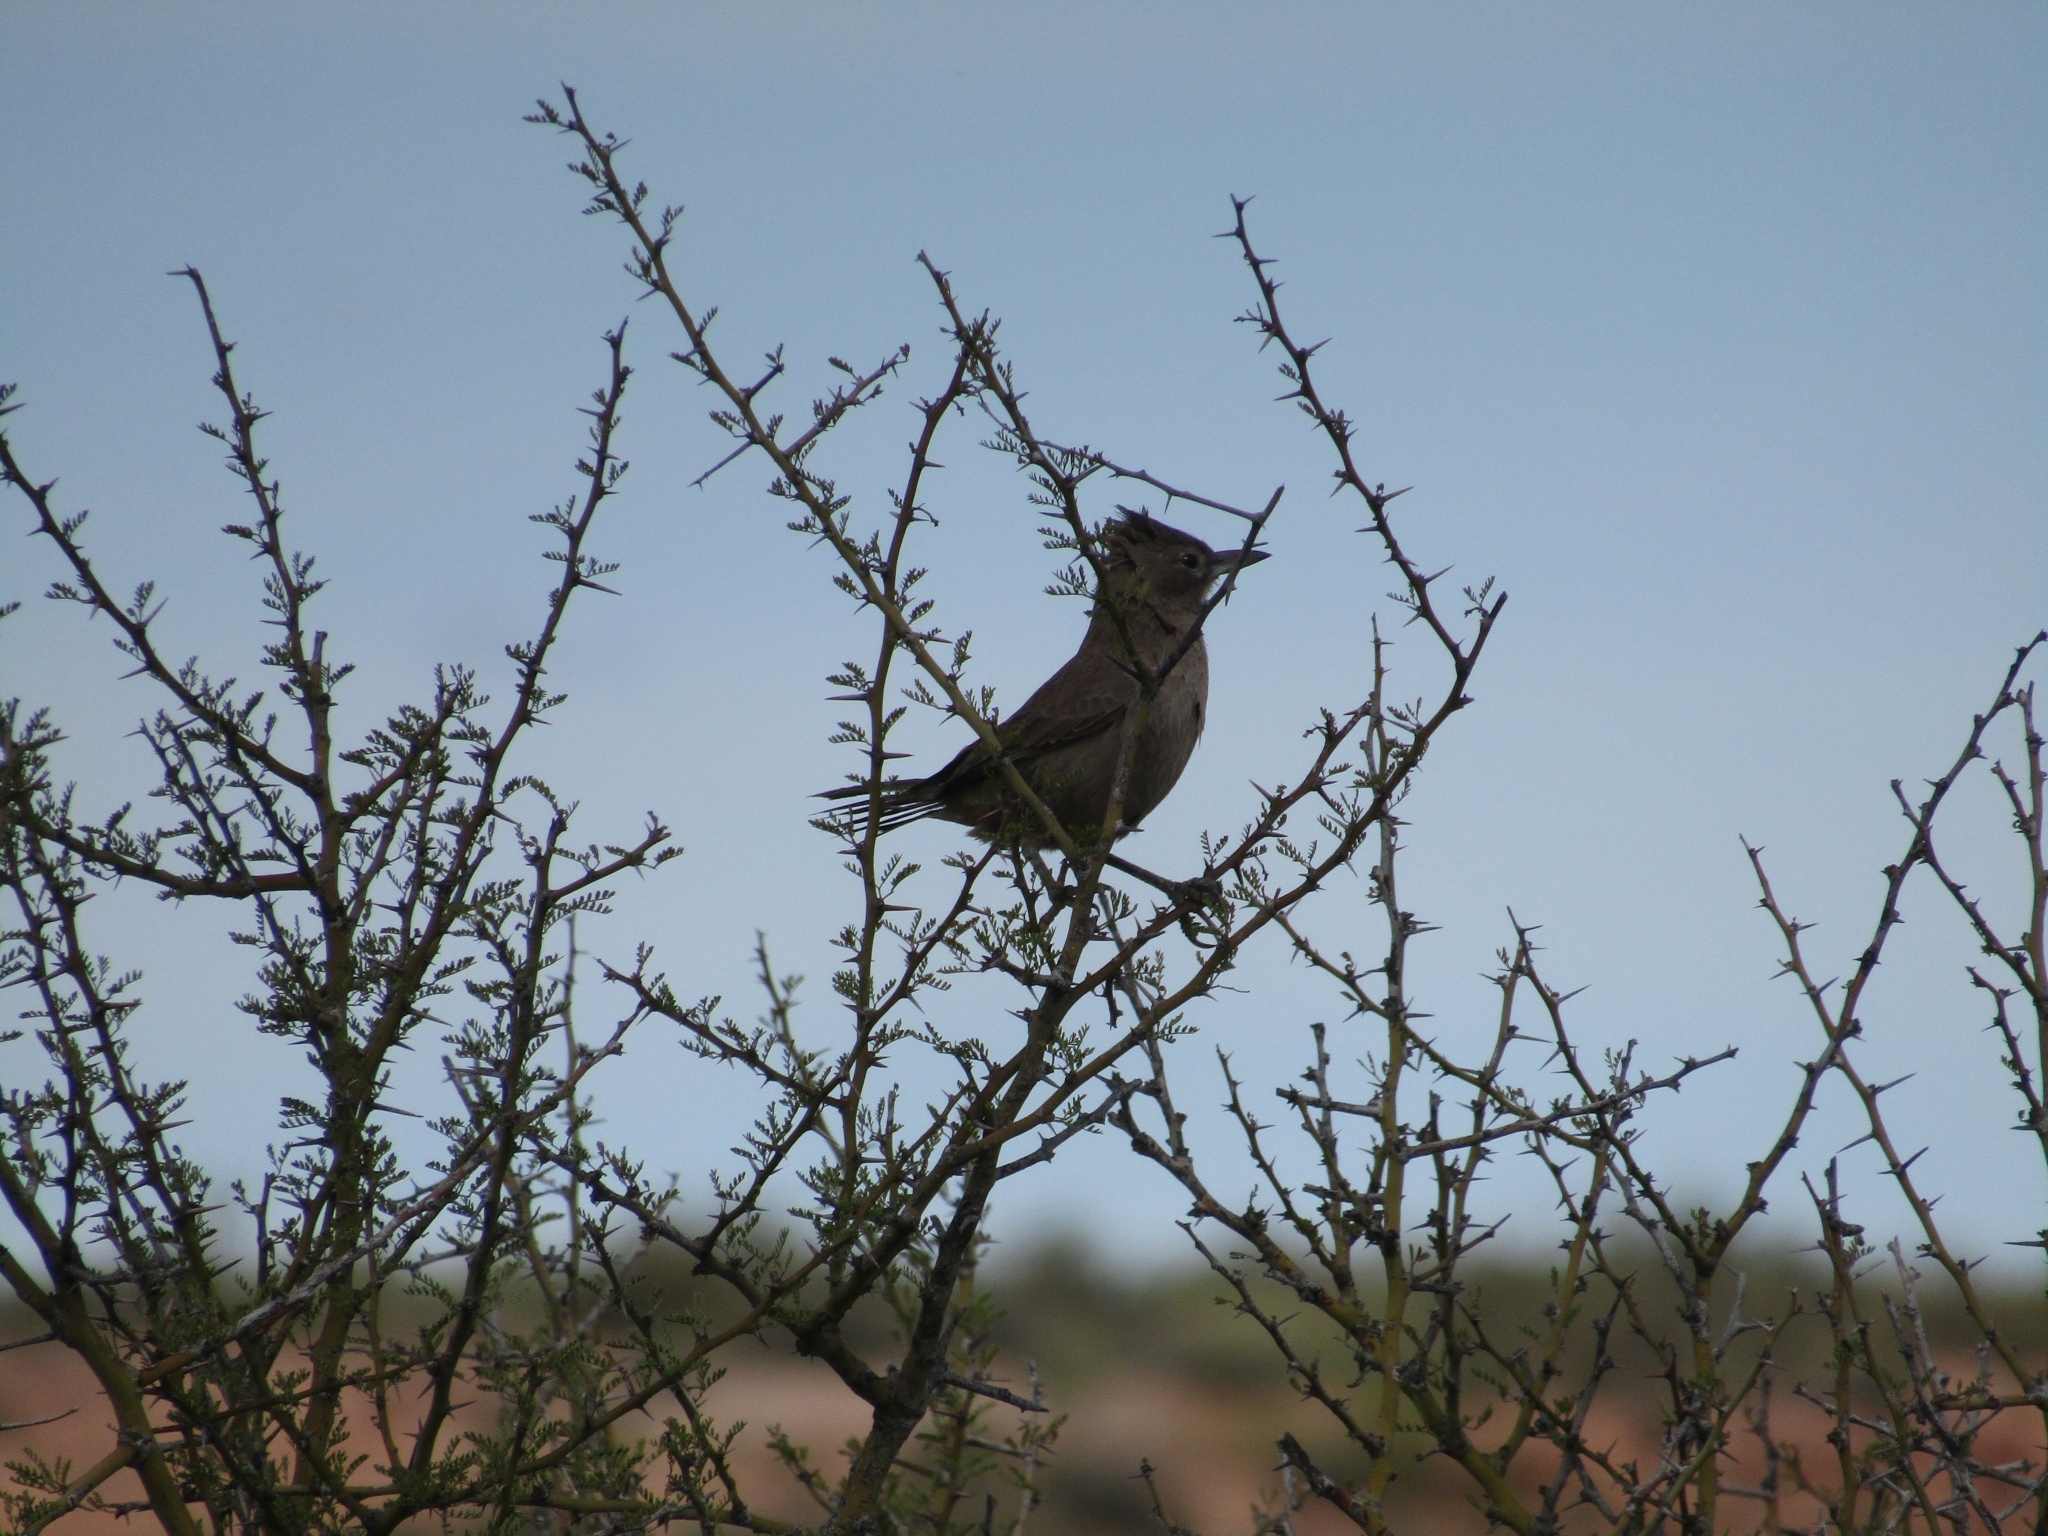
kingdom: Animalia
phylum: Chordata
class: Aves
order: Passeriformes
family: Furnariidae
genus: Pseudoseisura
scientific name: Pseudoseisura gutturalis
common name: White-throated cacholote
